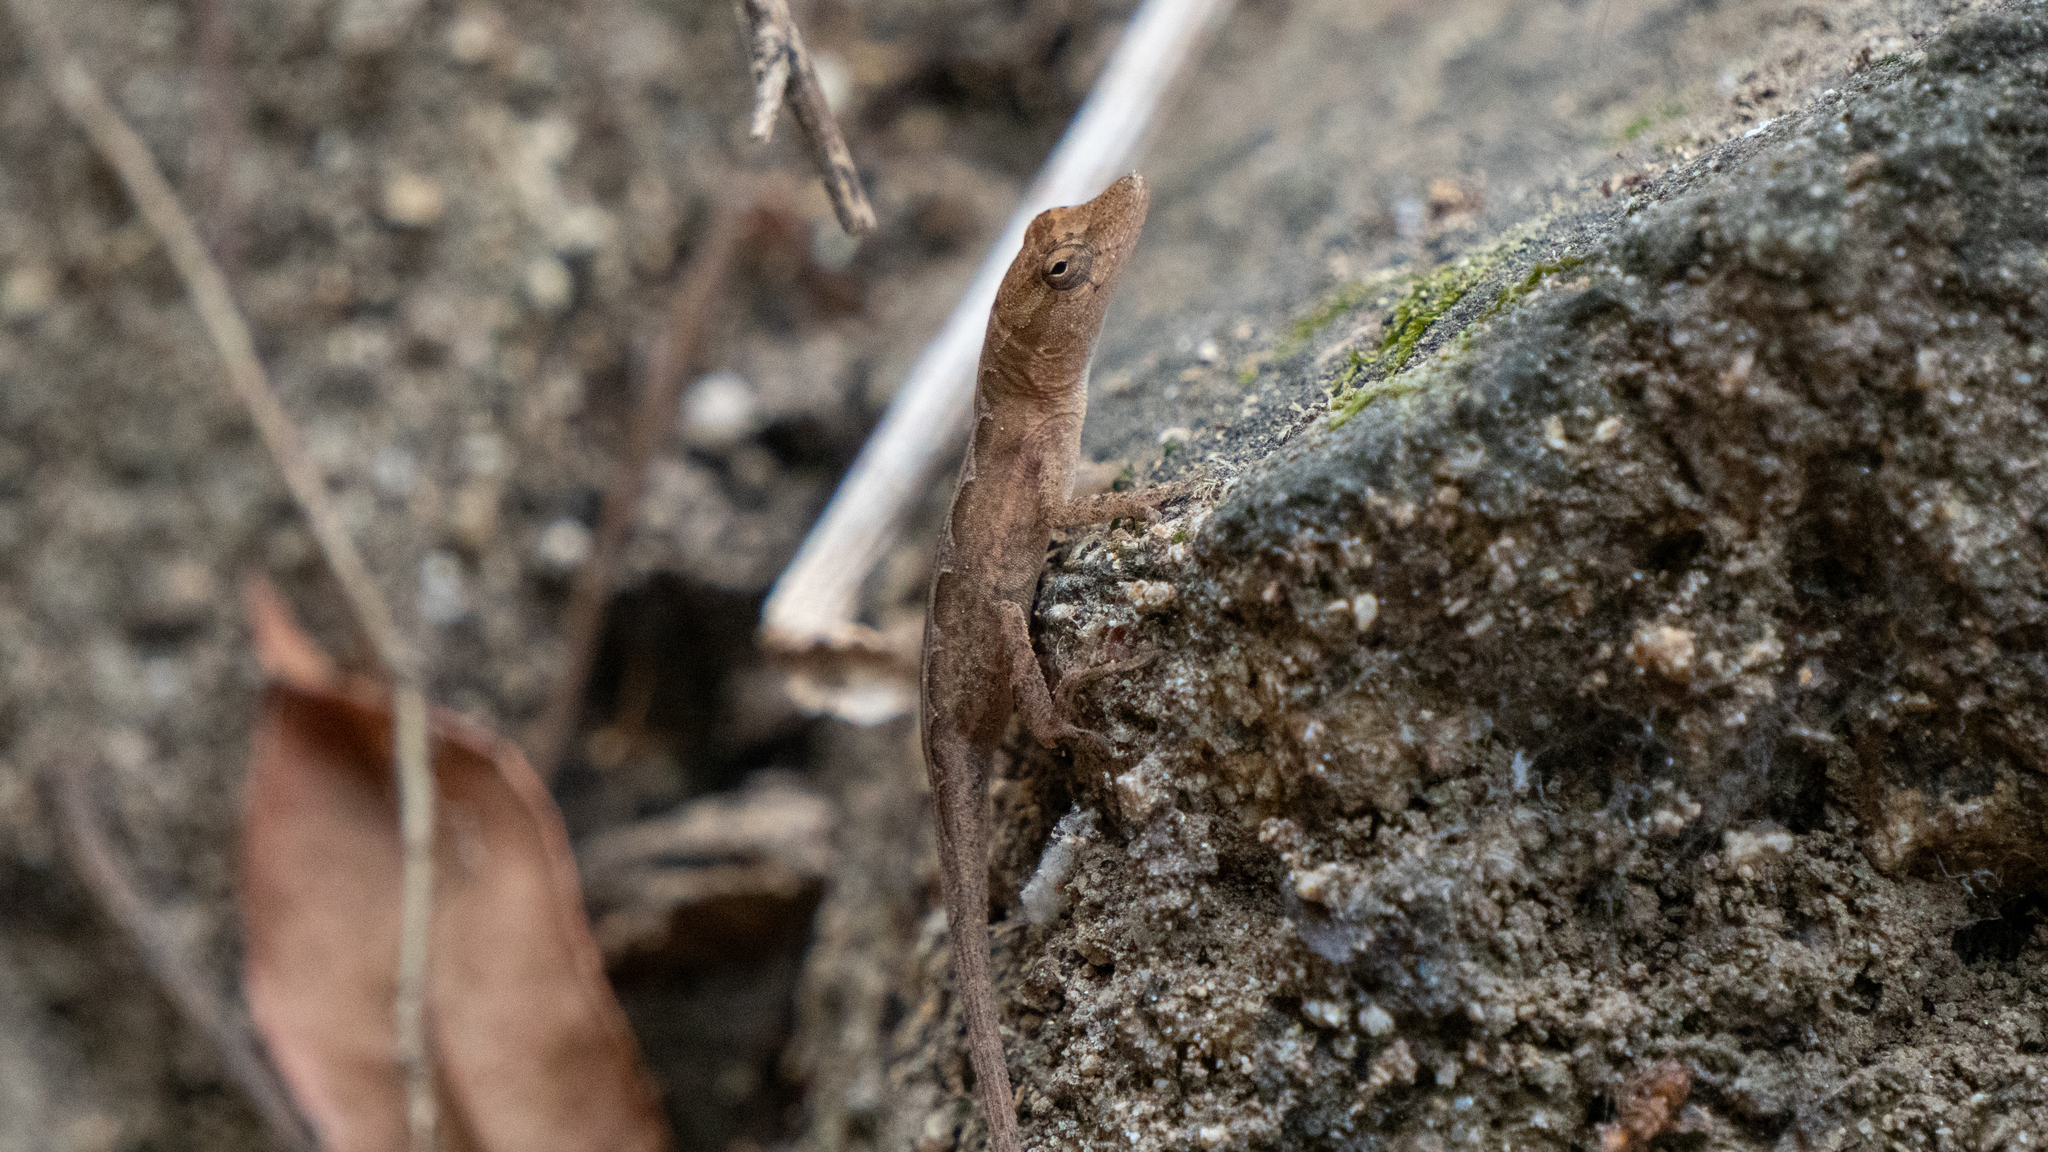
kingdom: Animalia
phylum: Chordata
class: Squamata
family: Dactyloidae
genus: Anolis
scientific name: Anolis nebulosus
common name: Clouded anole
